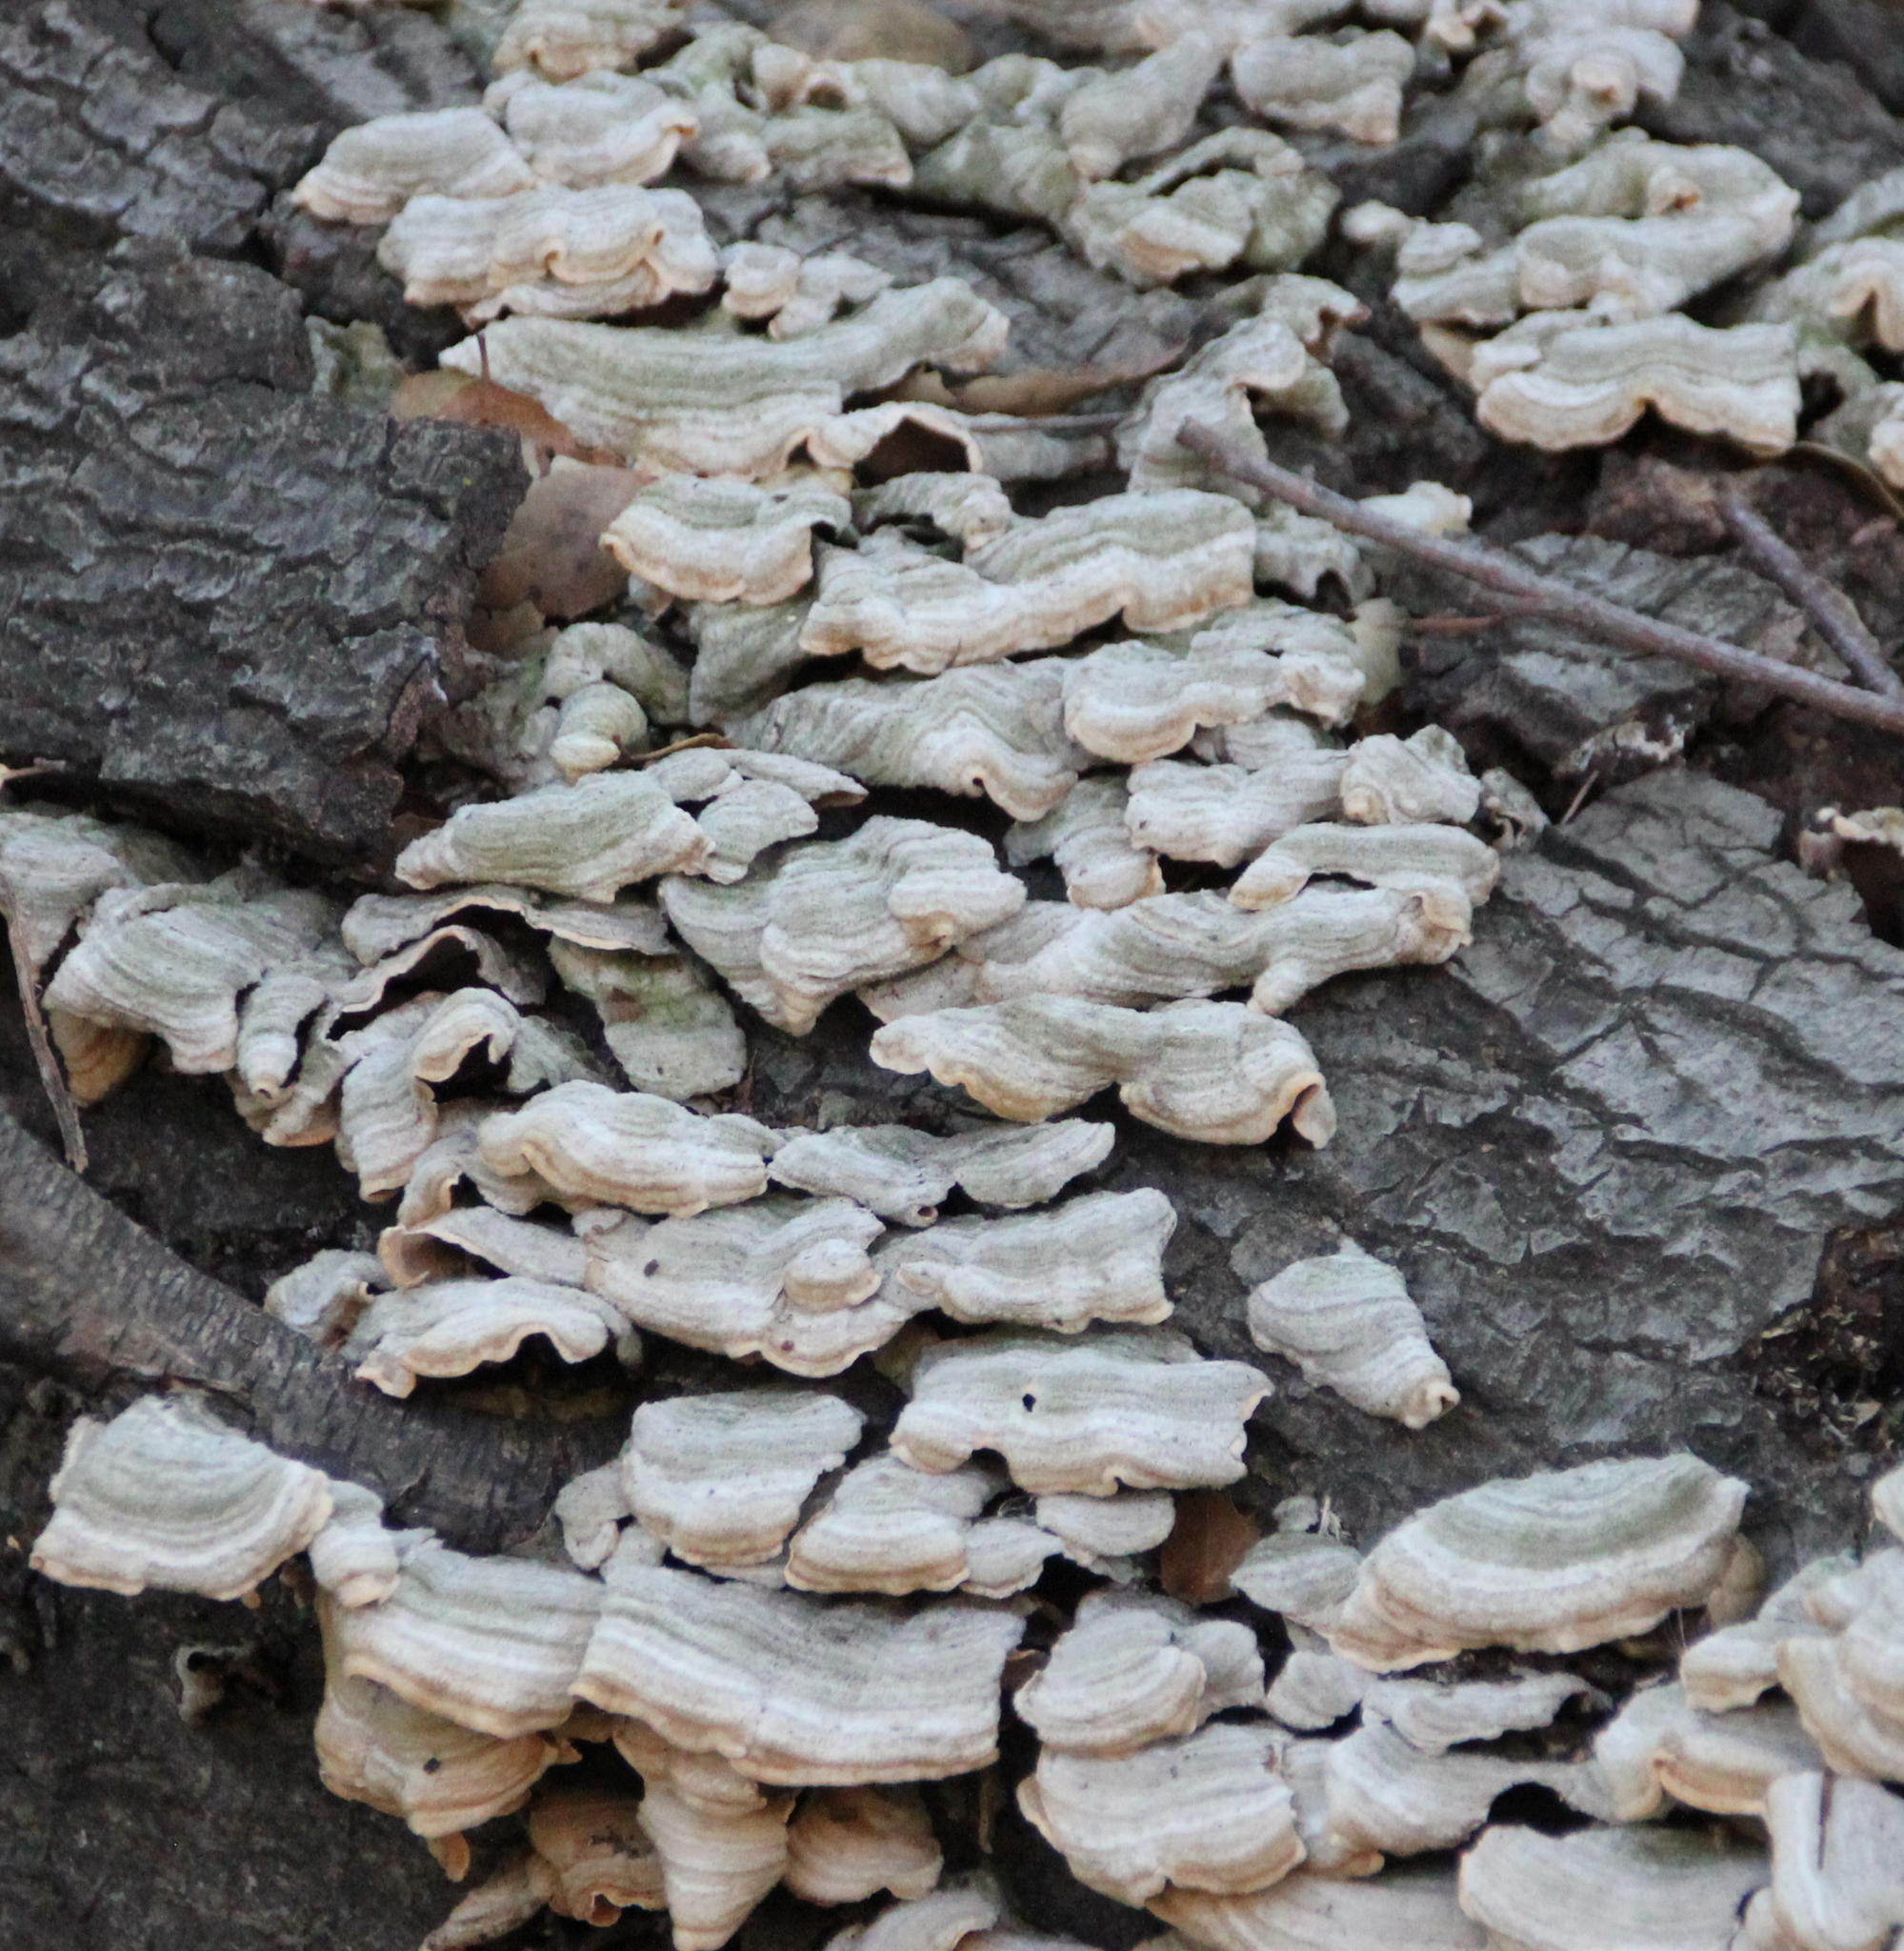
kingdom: Fungi
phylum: Basidiomycota
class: Agaricomycetes
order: Russulales
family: Stereaceae
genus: Stereum
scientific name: Stereum hirsutum
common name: Hairy curtain crust
